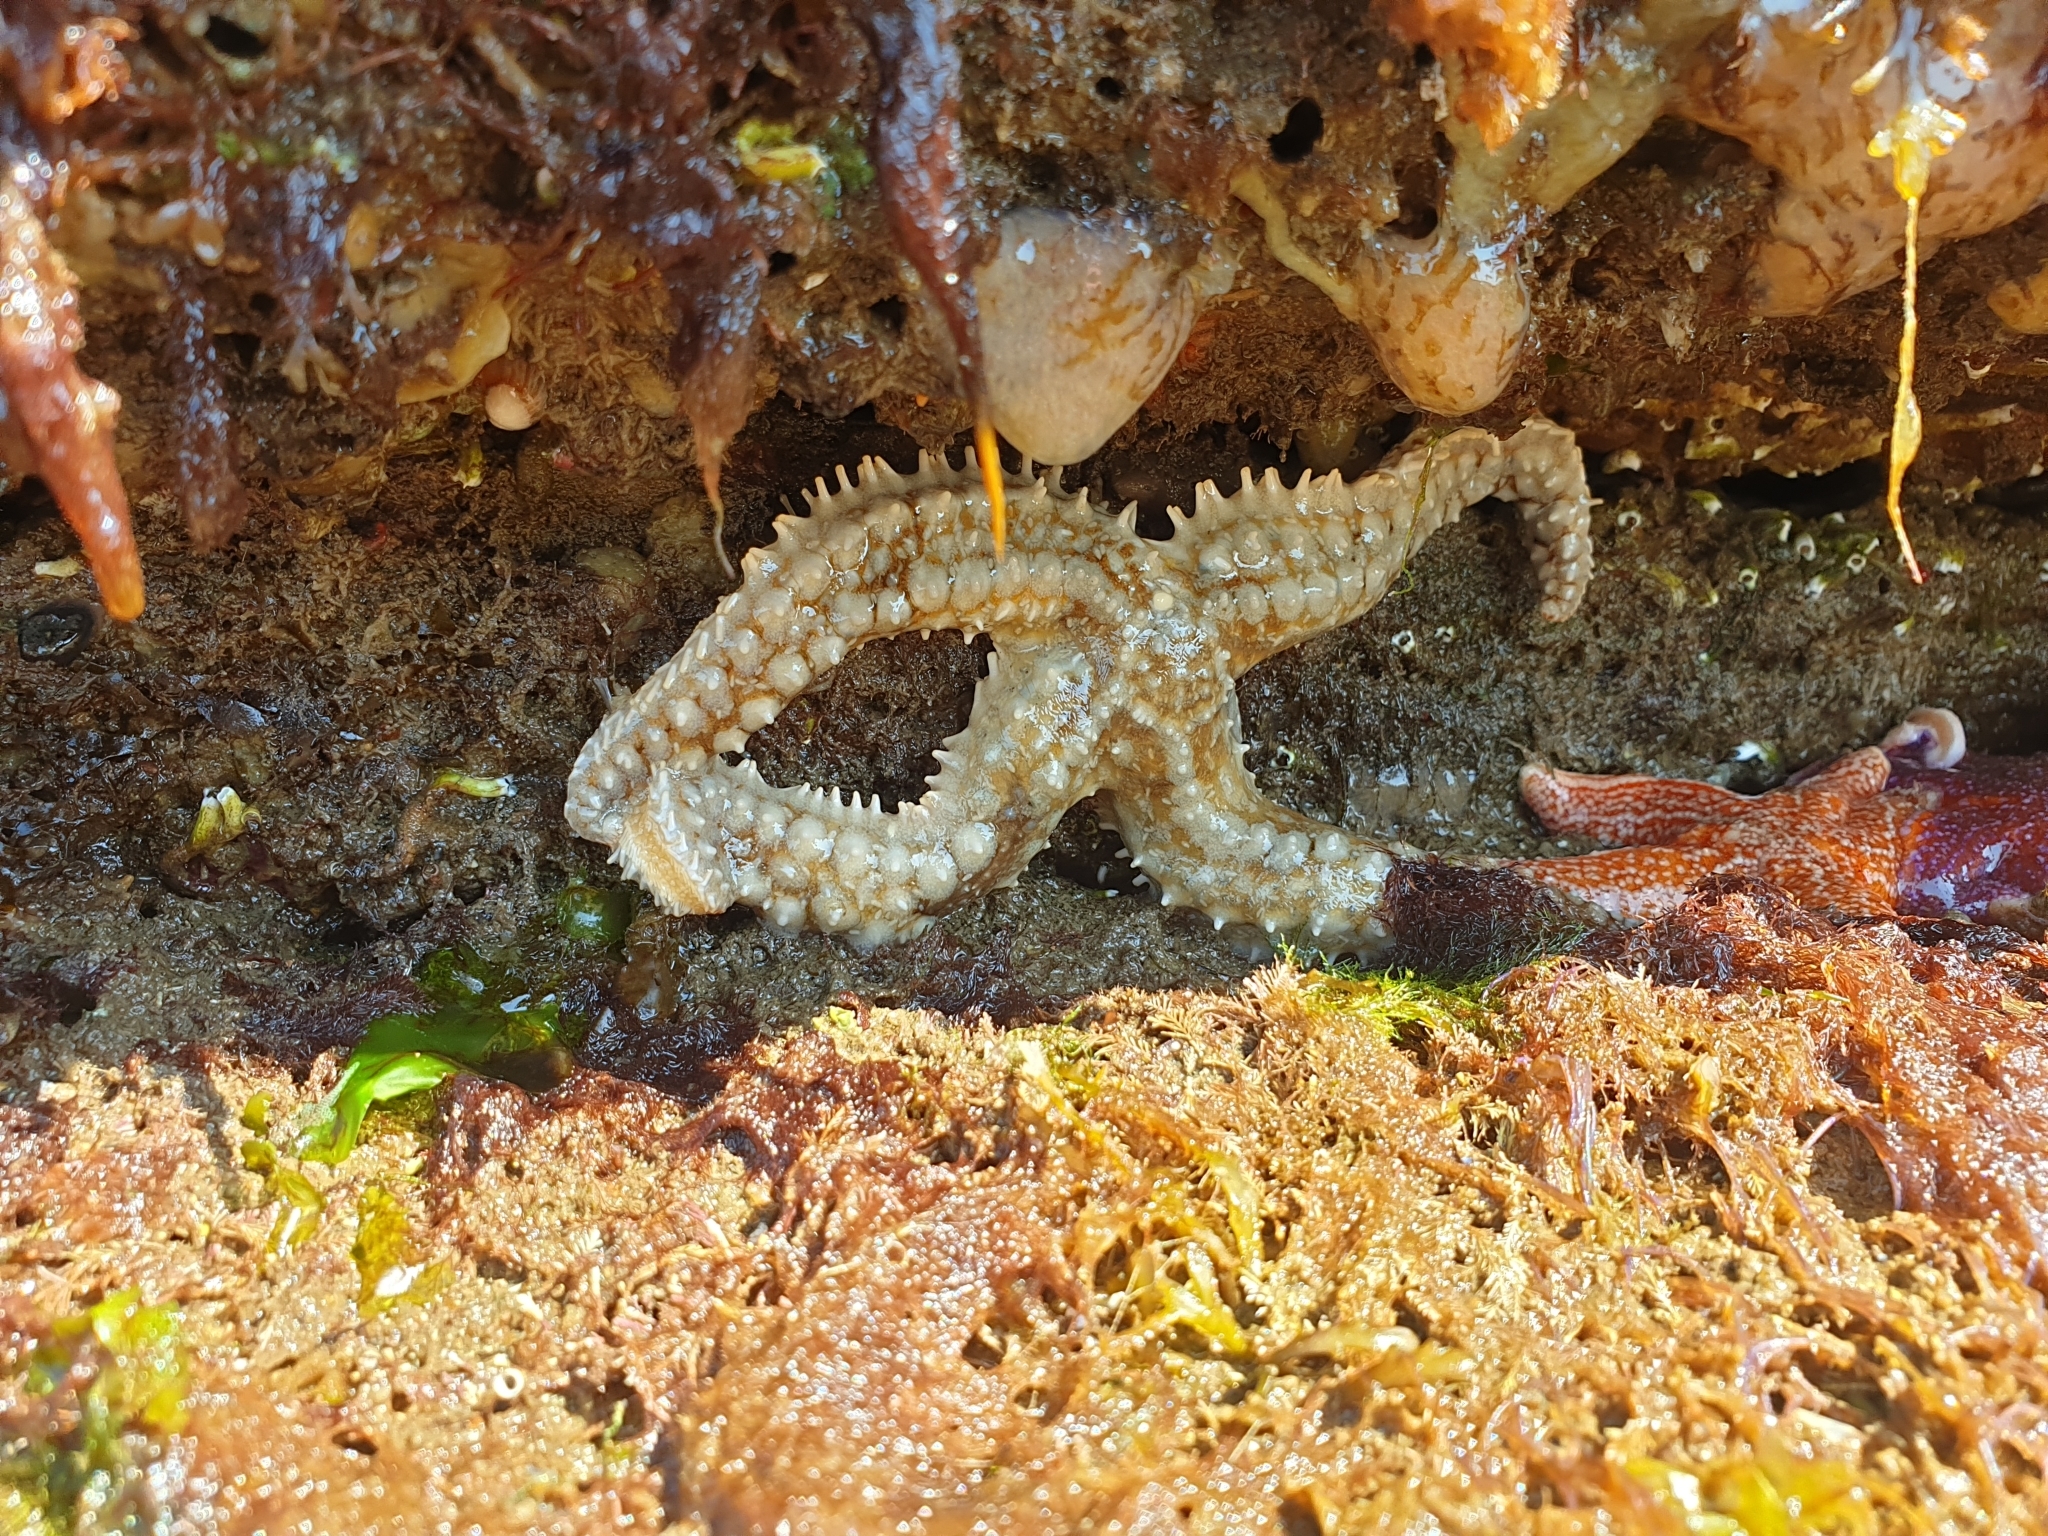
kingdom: Animalia
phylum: Echinodermata
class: Asteroidea
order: Forcipulatida
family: Asteriidae
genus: Marthasterias
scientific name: Marthasterias glacialis
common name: Spiny starfish
